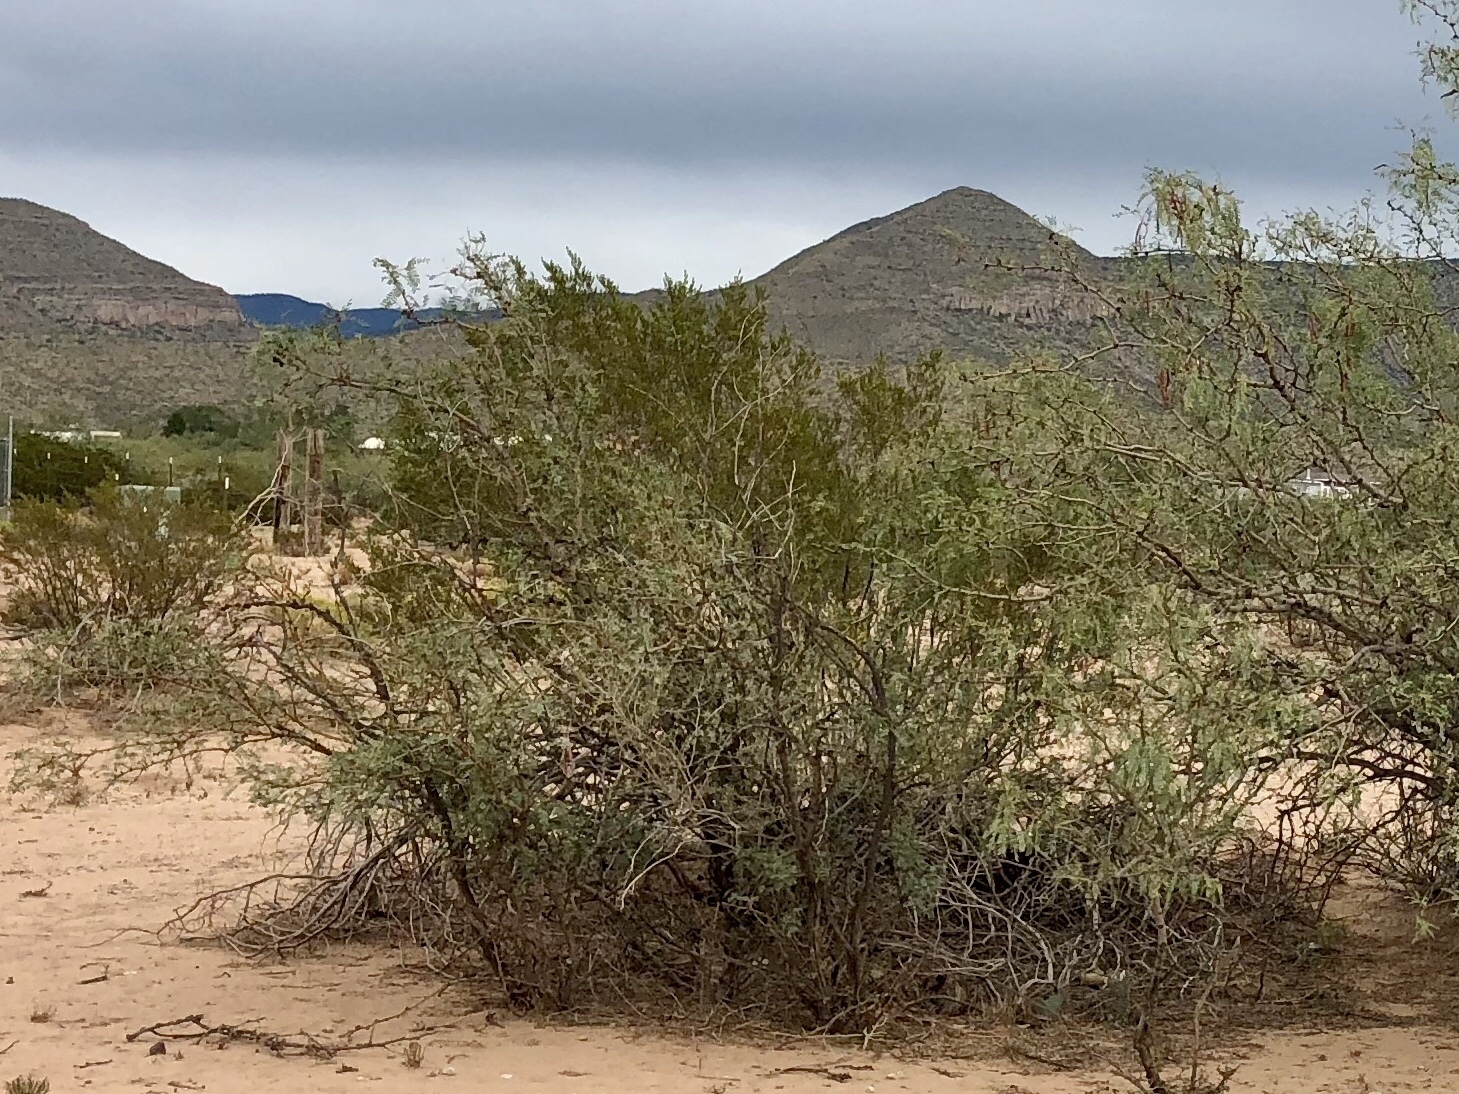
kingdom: Plantae
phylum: Tracheophyta
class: Magnoliopsida
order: Zygophyllales
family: Zygophyllaceae
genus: Larrea
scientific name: Larrea tridentata
